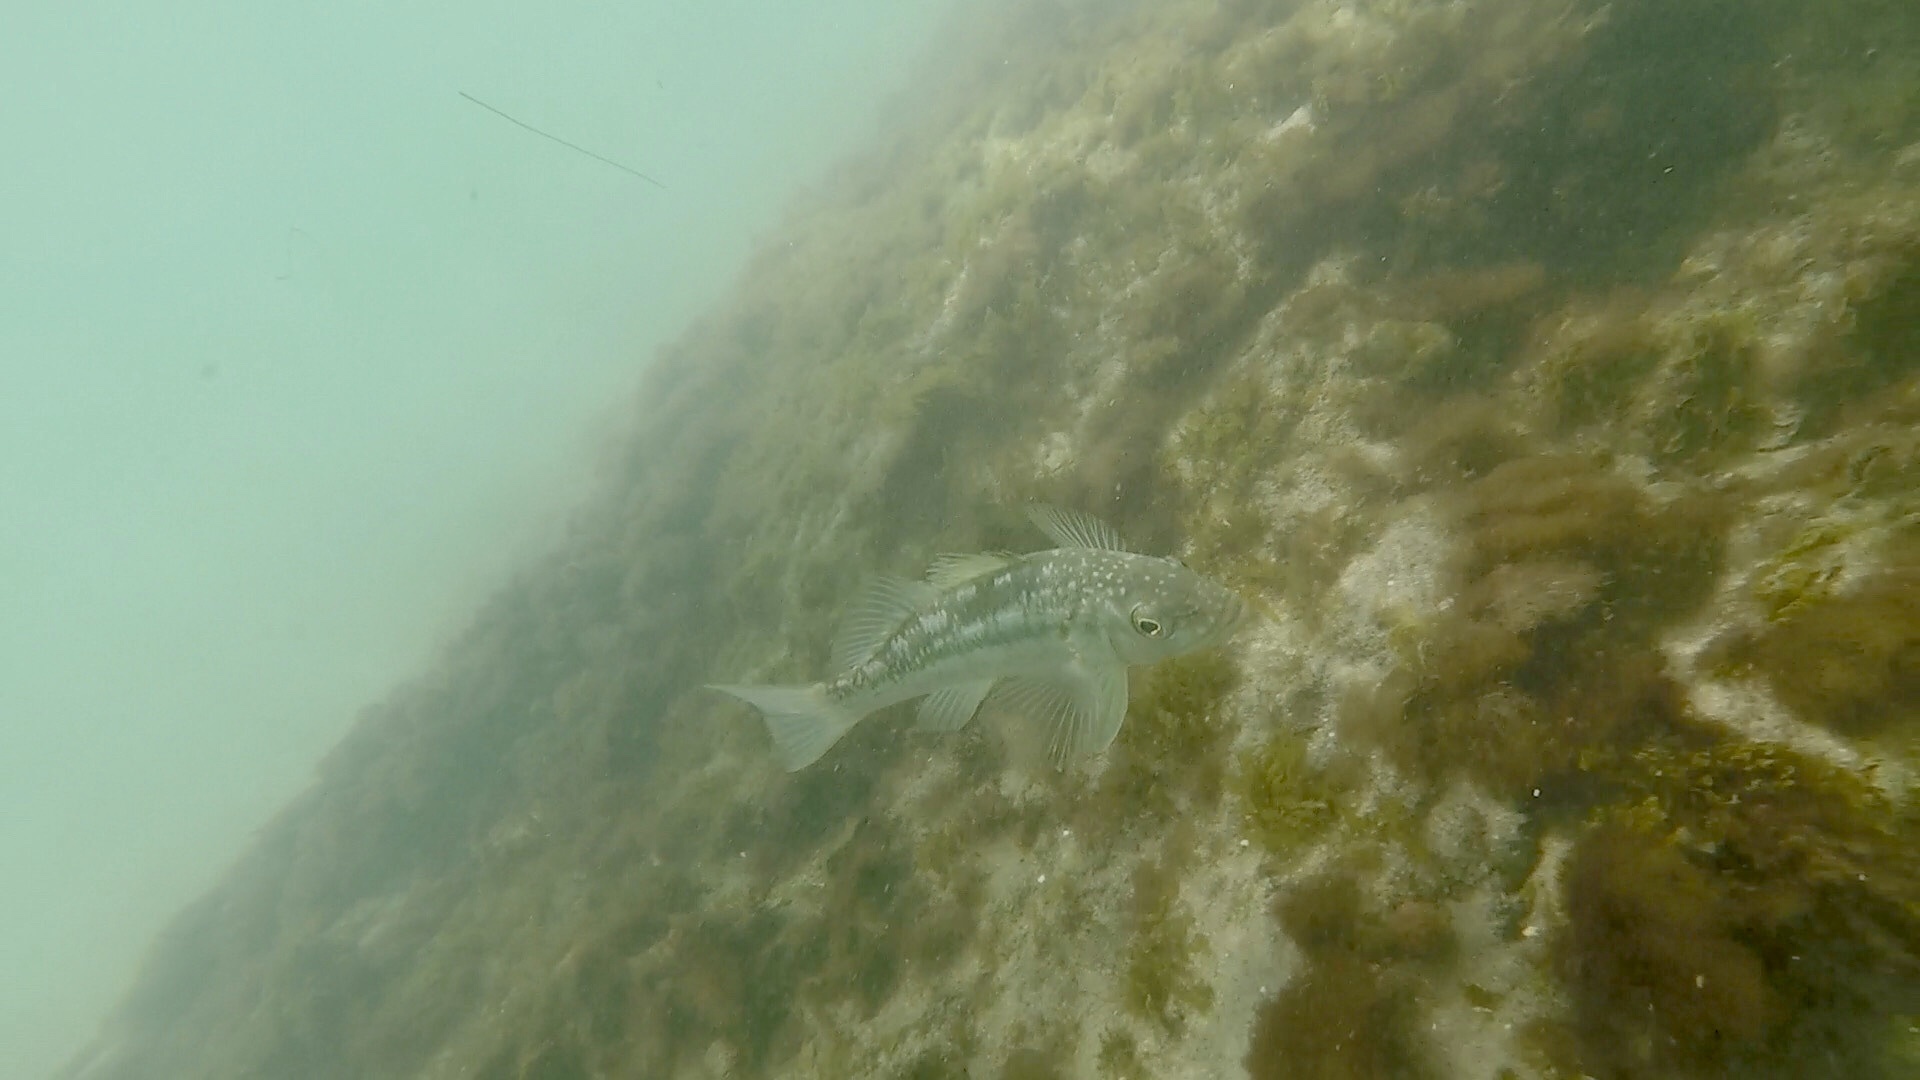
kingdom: Animalia
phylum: Chordata
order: Perciformes
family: Serranidae
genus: Paralabrax
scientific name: Paralabrax clathratus
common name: Kelp bass
